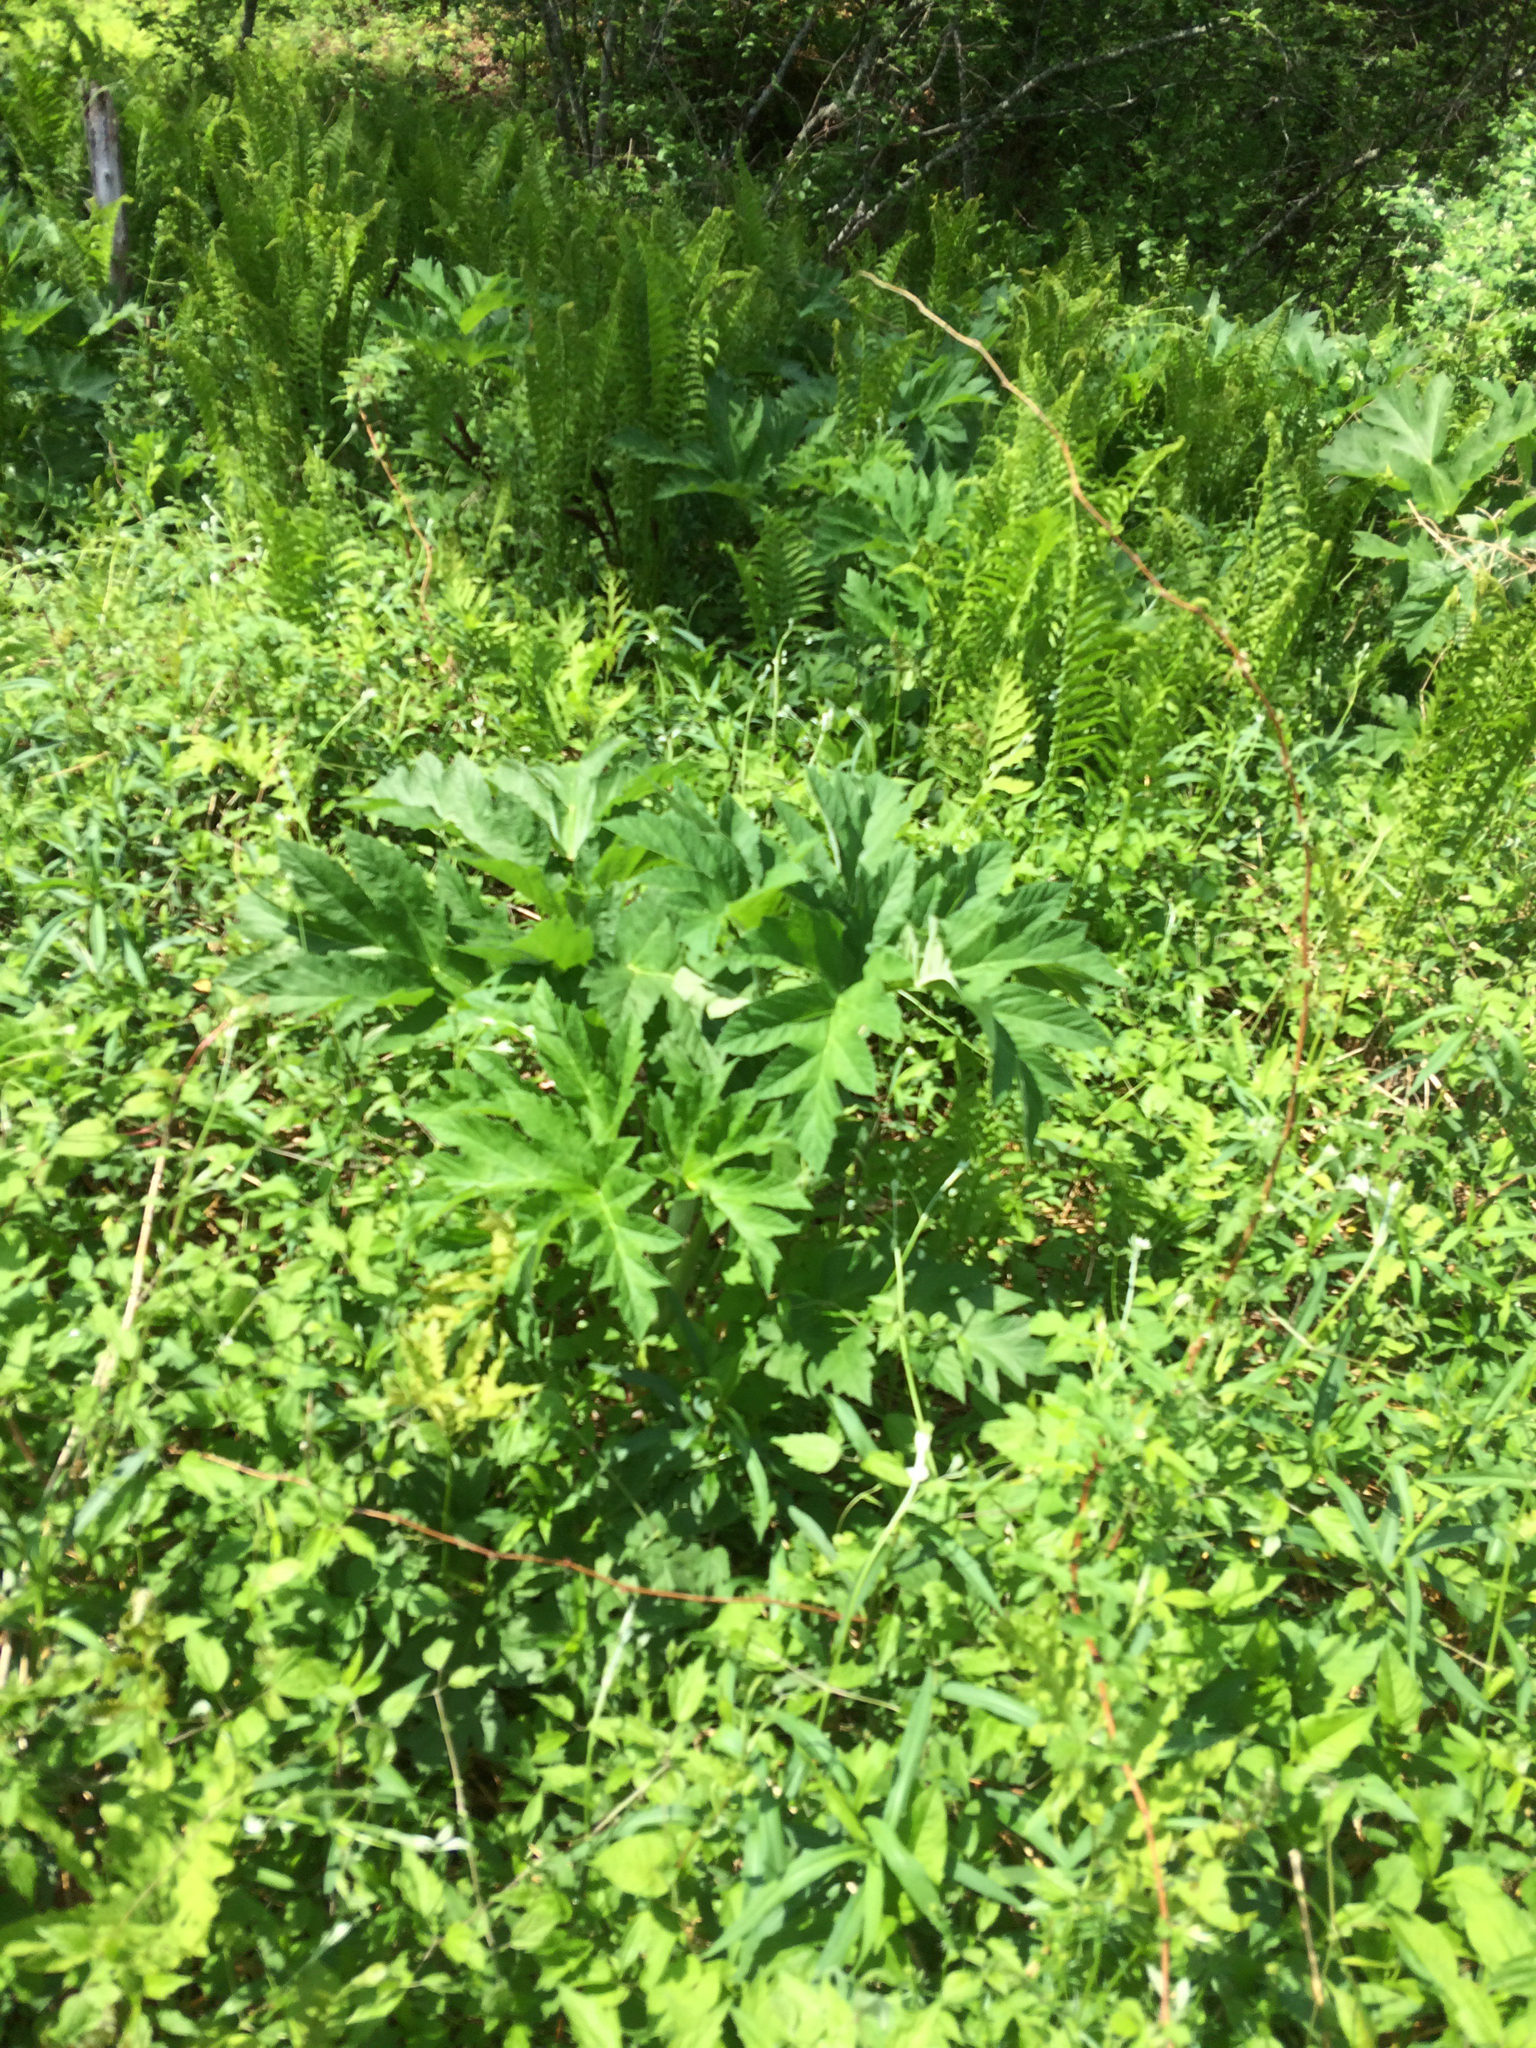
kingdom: Plantae
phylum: Tracheophyta
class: Magnoliopsida
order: Apiales
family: Apiaceae
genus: Heracleum
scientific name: Heracleum maximum
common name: American cow parsnip
